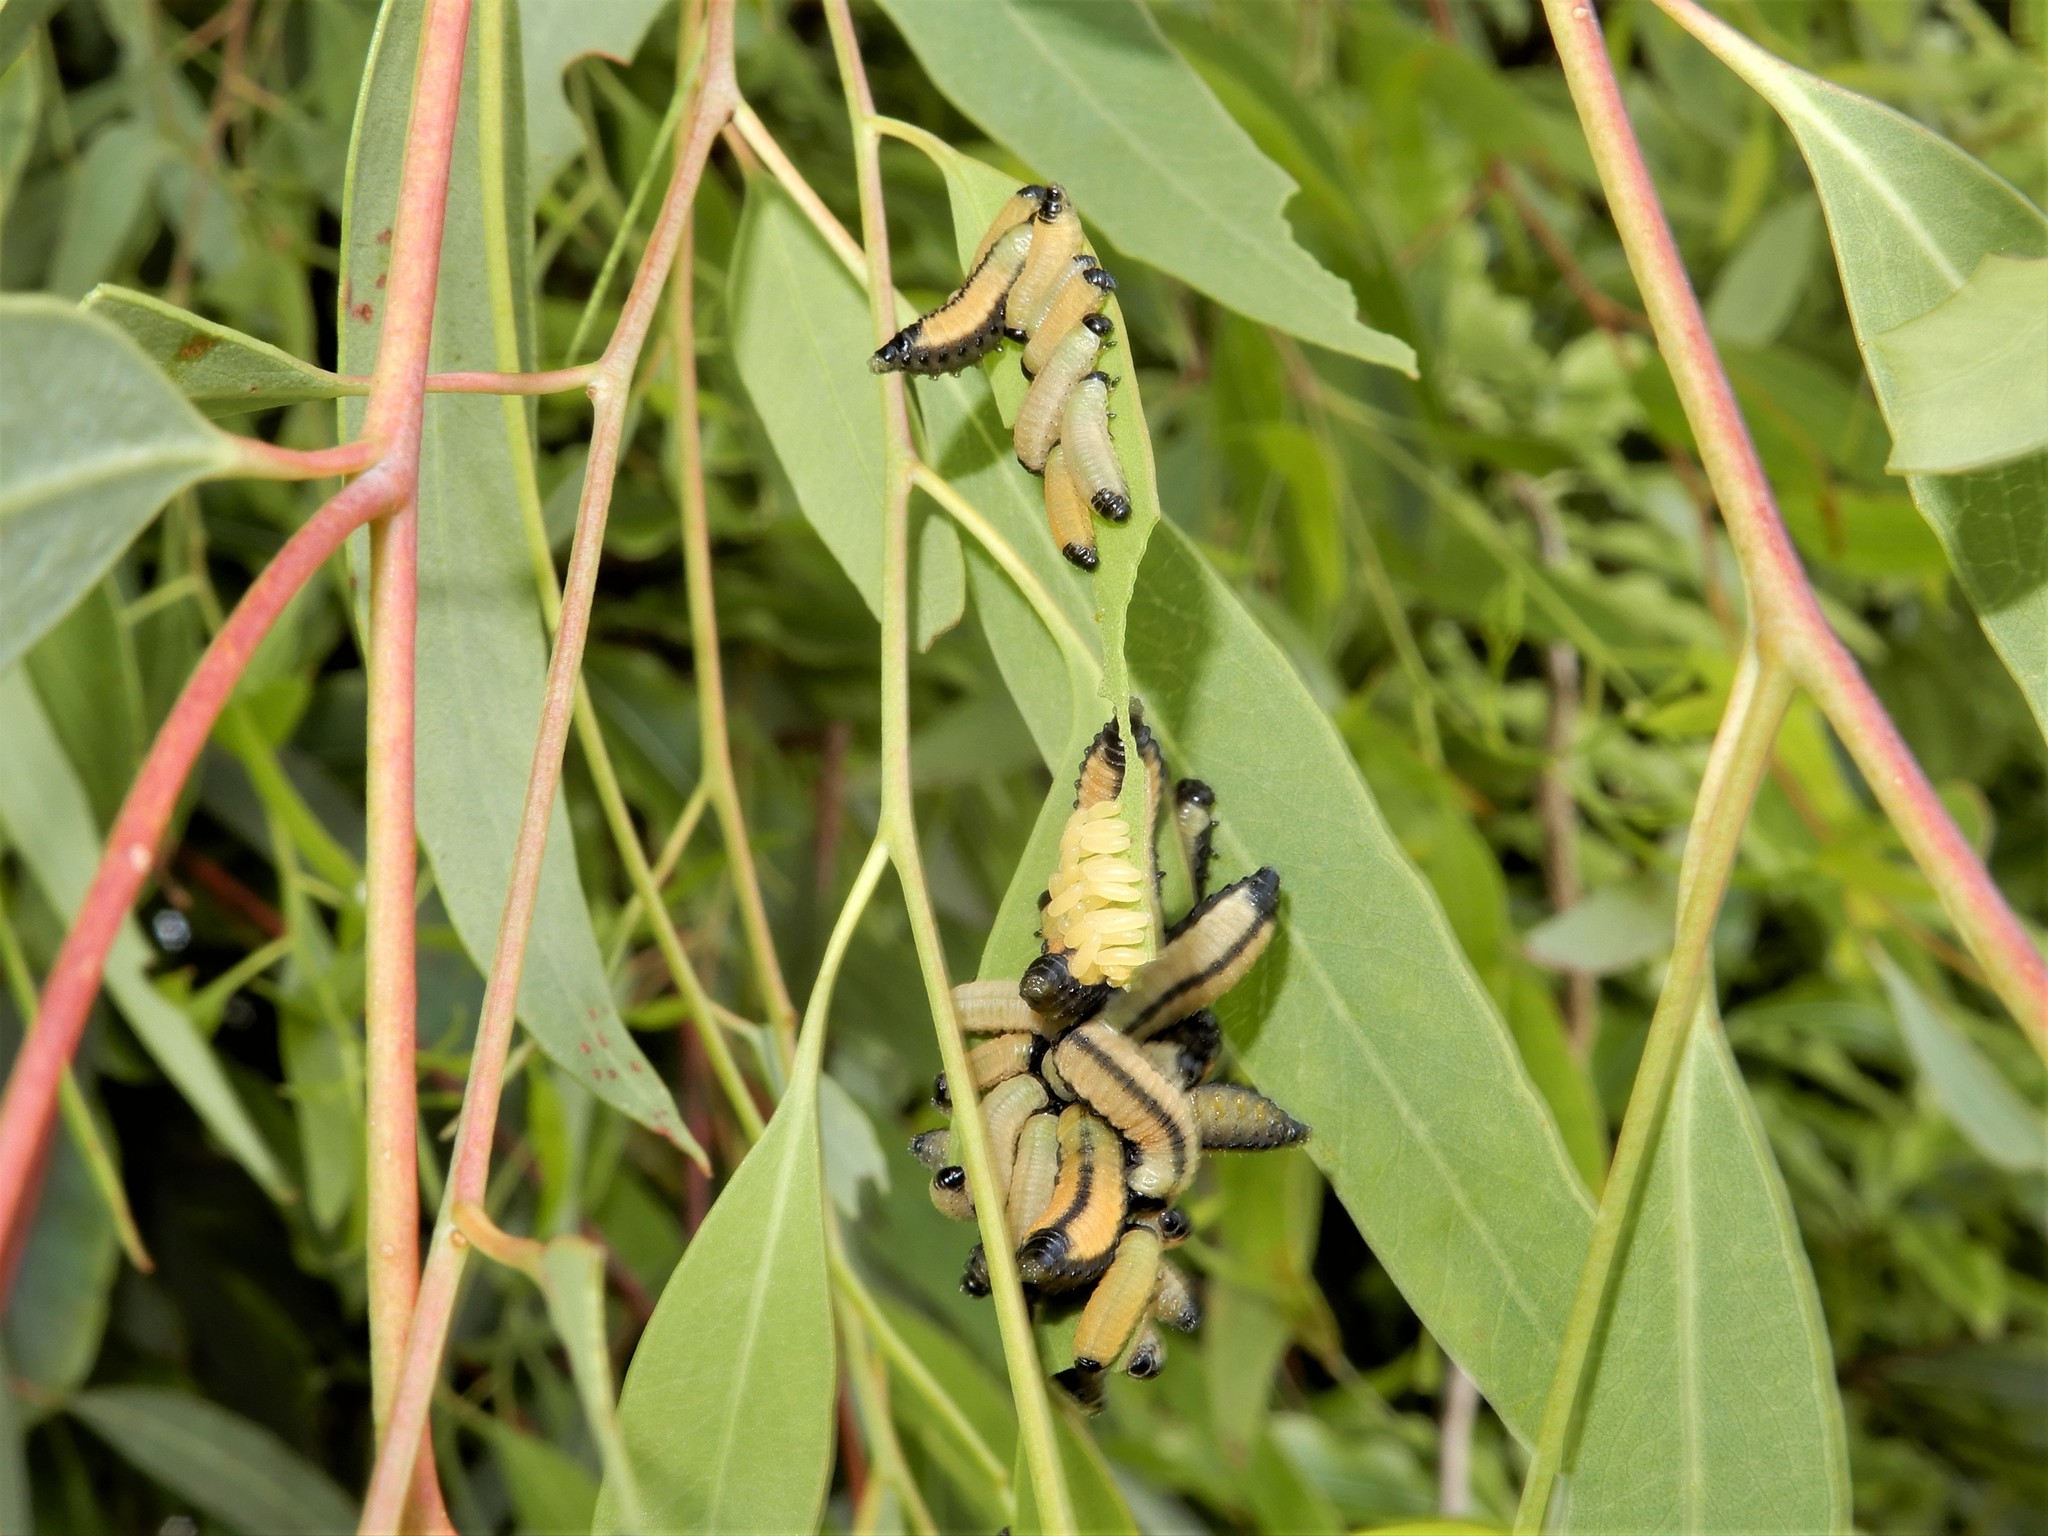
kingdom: Animalia
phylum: Arthropoda
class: Insecta
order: Coleoptera
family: Chrysomelidae
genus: Paropsisterna
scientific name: Paropsisterna cloelia
